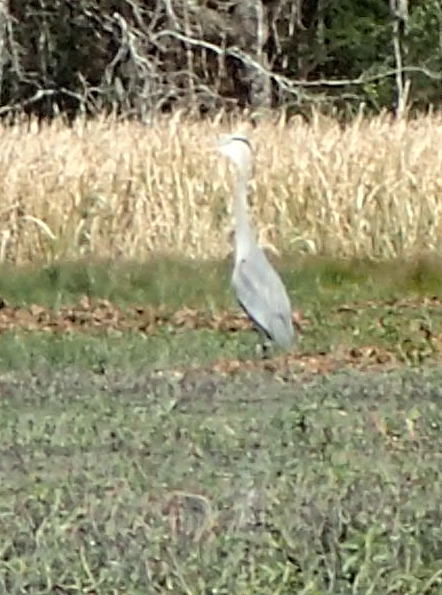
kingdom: Animalia
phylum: Chordata
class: Aves
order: Pelecaniformes
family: Ardeidae
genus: Ardea
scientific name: Ardea herodias
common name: Great blue heron
